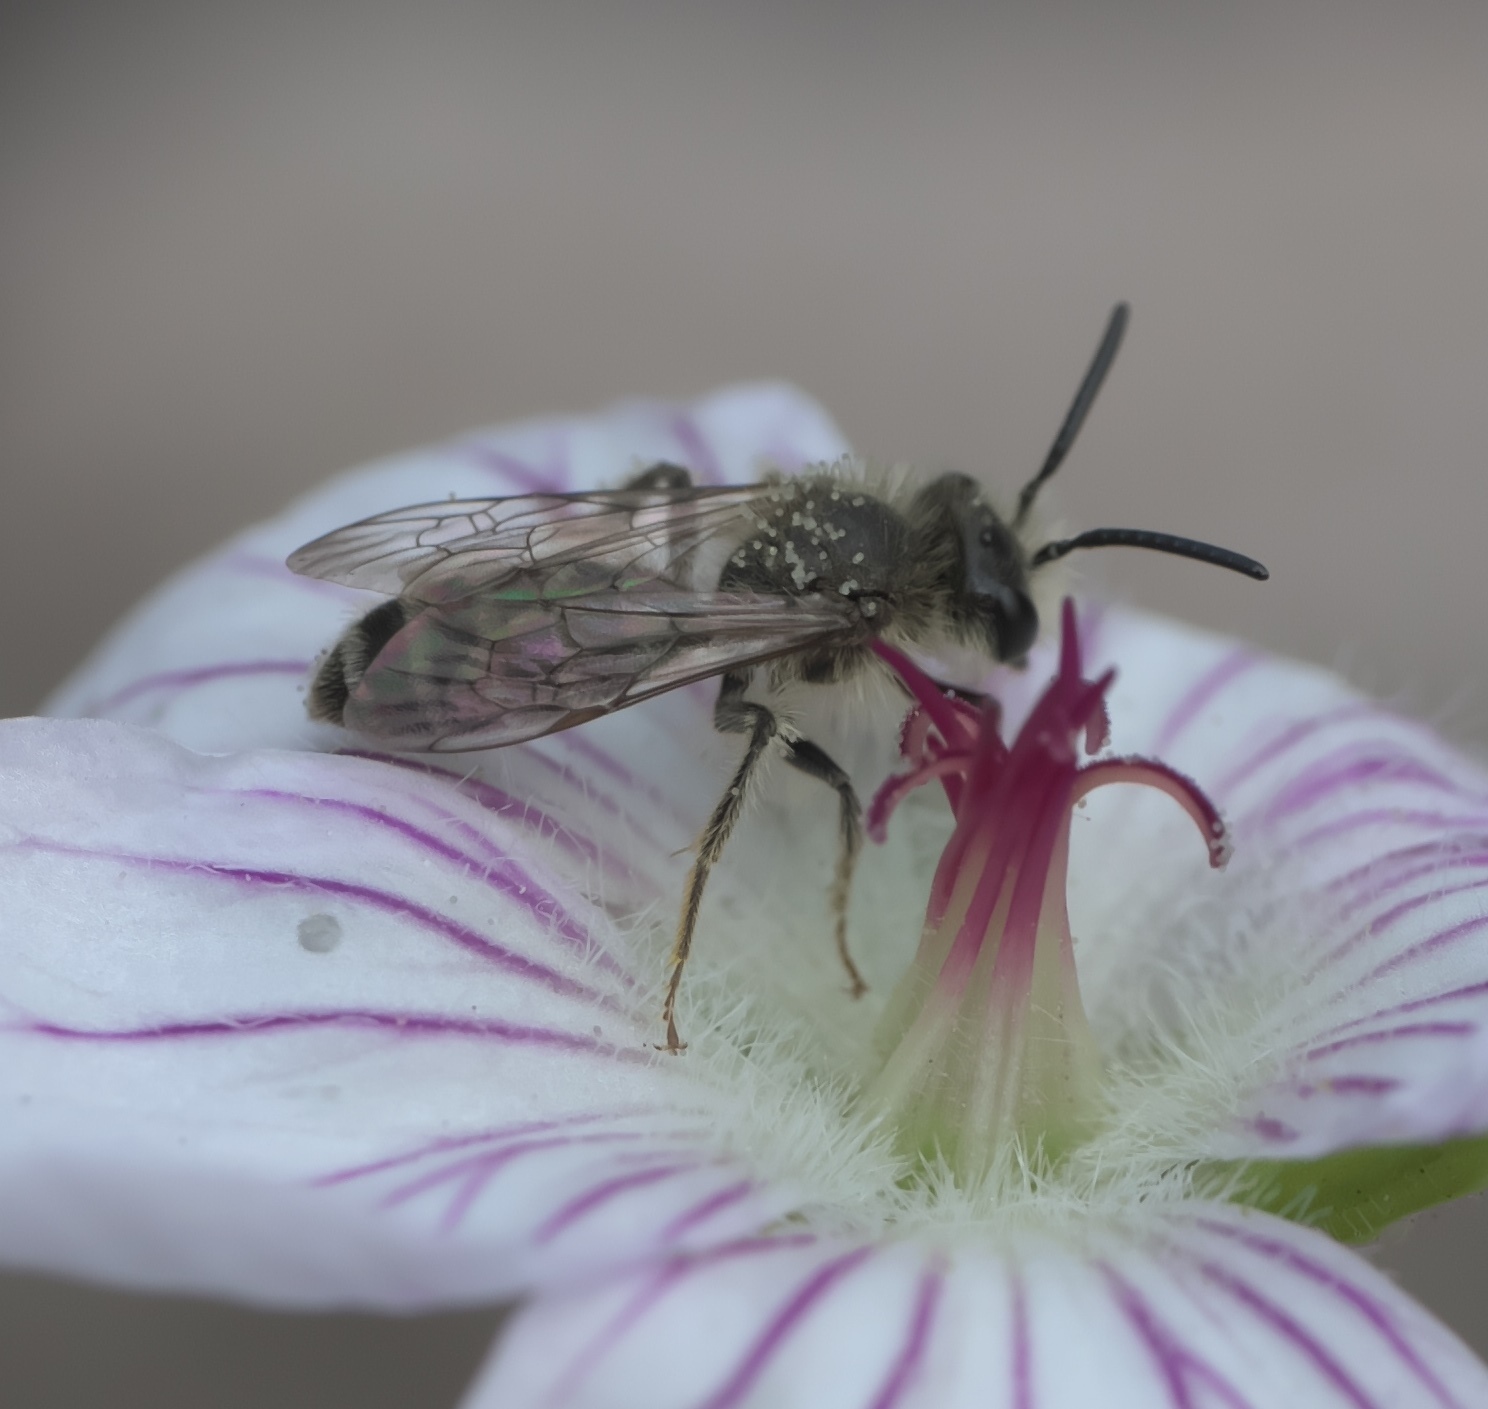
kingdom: Animalia
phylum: Arthropoda
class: Insecta
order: Hymenoptera
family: Andrenidae
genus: Andrena
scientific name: Andrena
